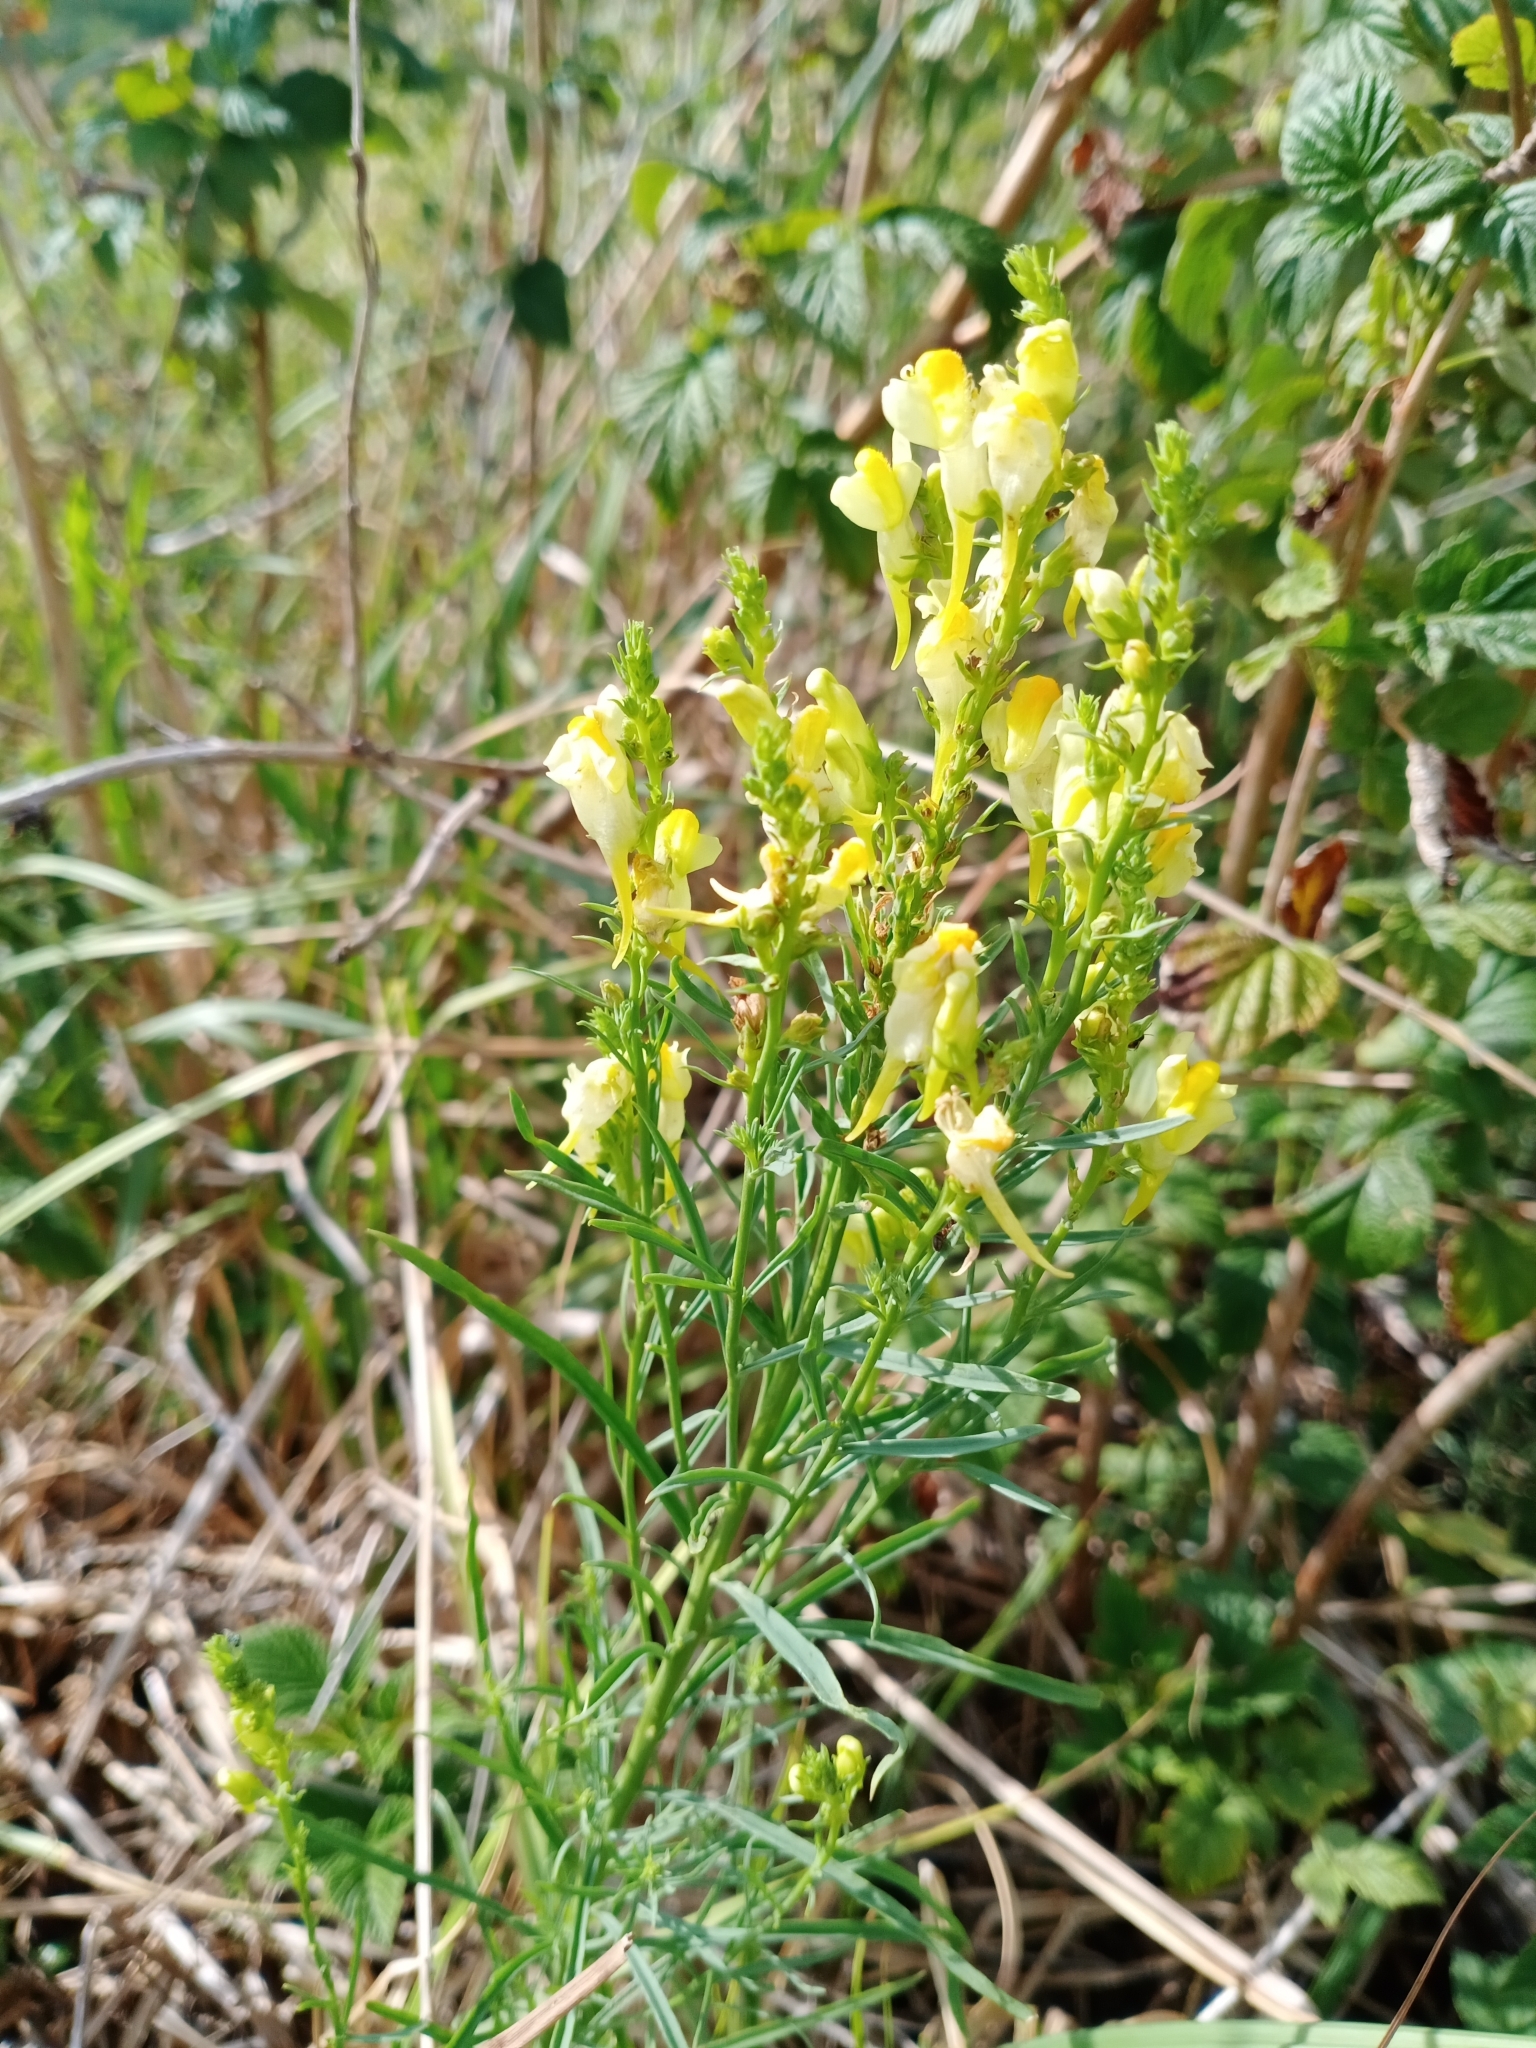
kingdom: Plantae
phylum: Tracheophyta
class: Magnoliopsida
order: Lamiales
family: Plantaginaceae
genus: Linaria
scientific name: Linaria vulgaris
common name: Butter and eggs
